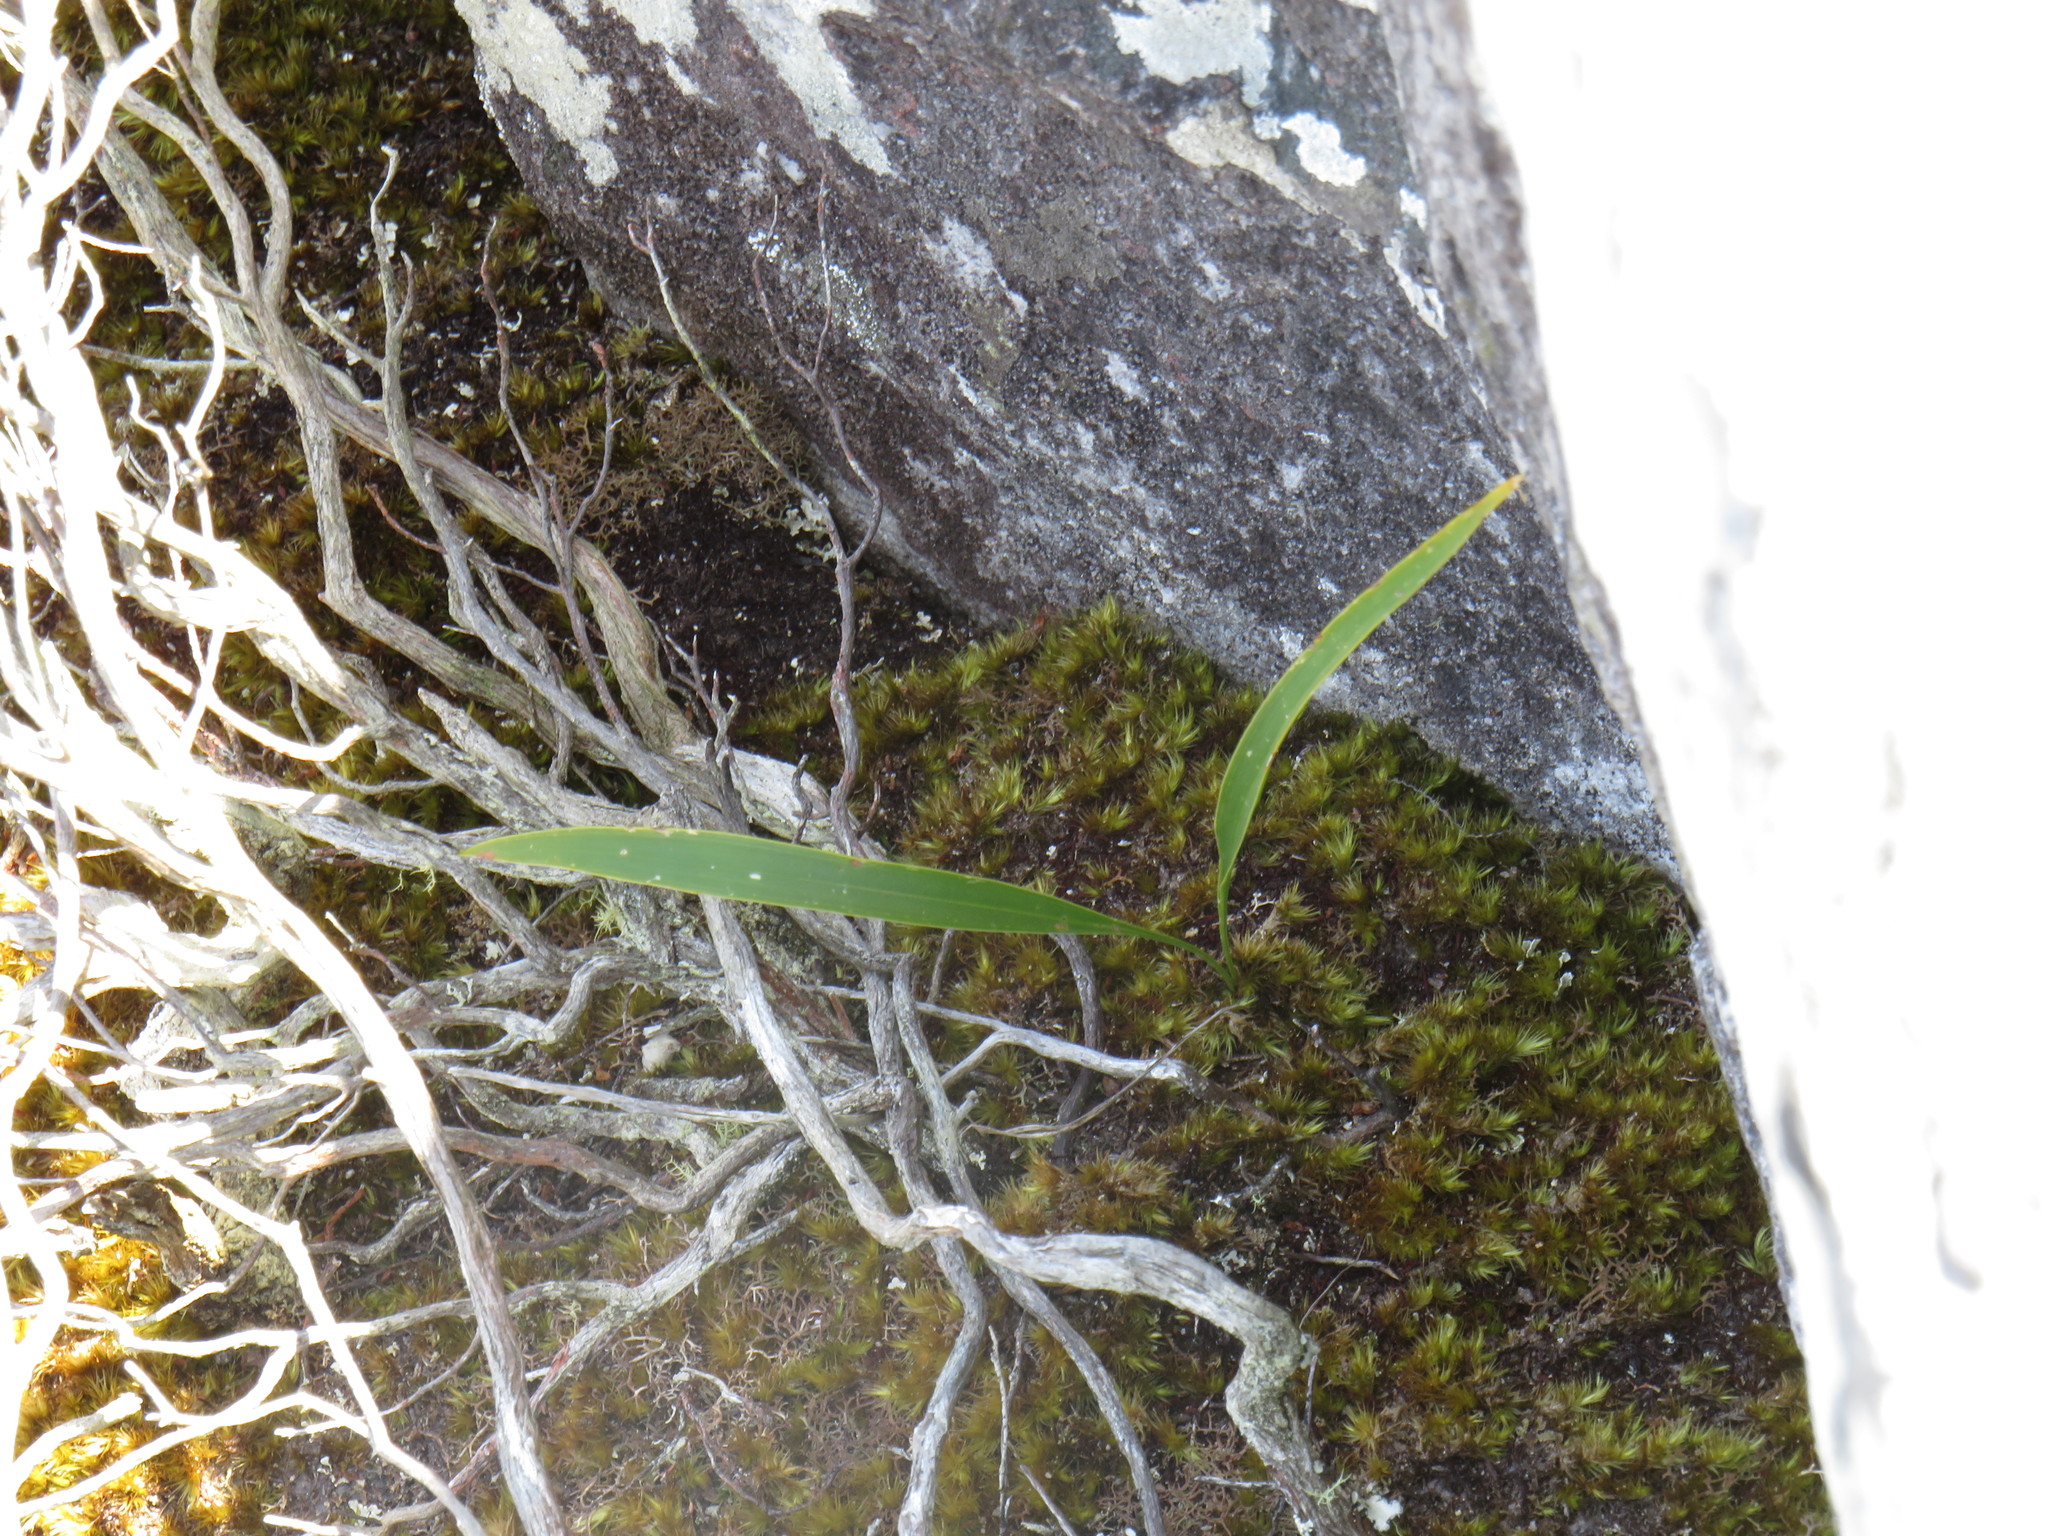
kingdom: Plantae
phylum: Bryophyta
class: Bryopsida
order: Dicranales
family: Leucobryaceae
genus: Campylopus
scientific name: Campylopus bartramiaceus
